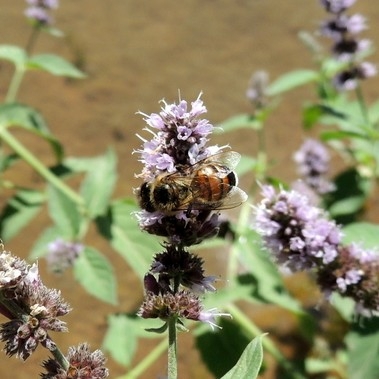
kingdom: Animalia
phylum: Arthropoda
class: Insecta
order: Hymenoptera
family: Apidae
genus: Apis
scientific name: Apis mellifera
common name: Honey bee
